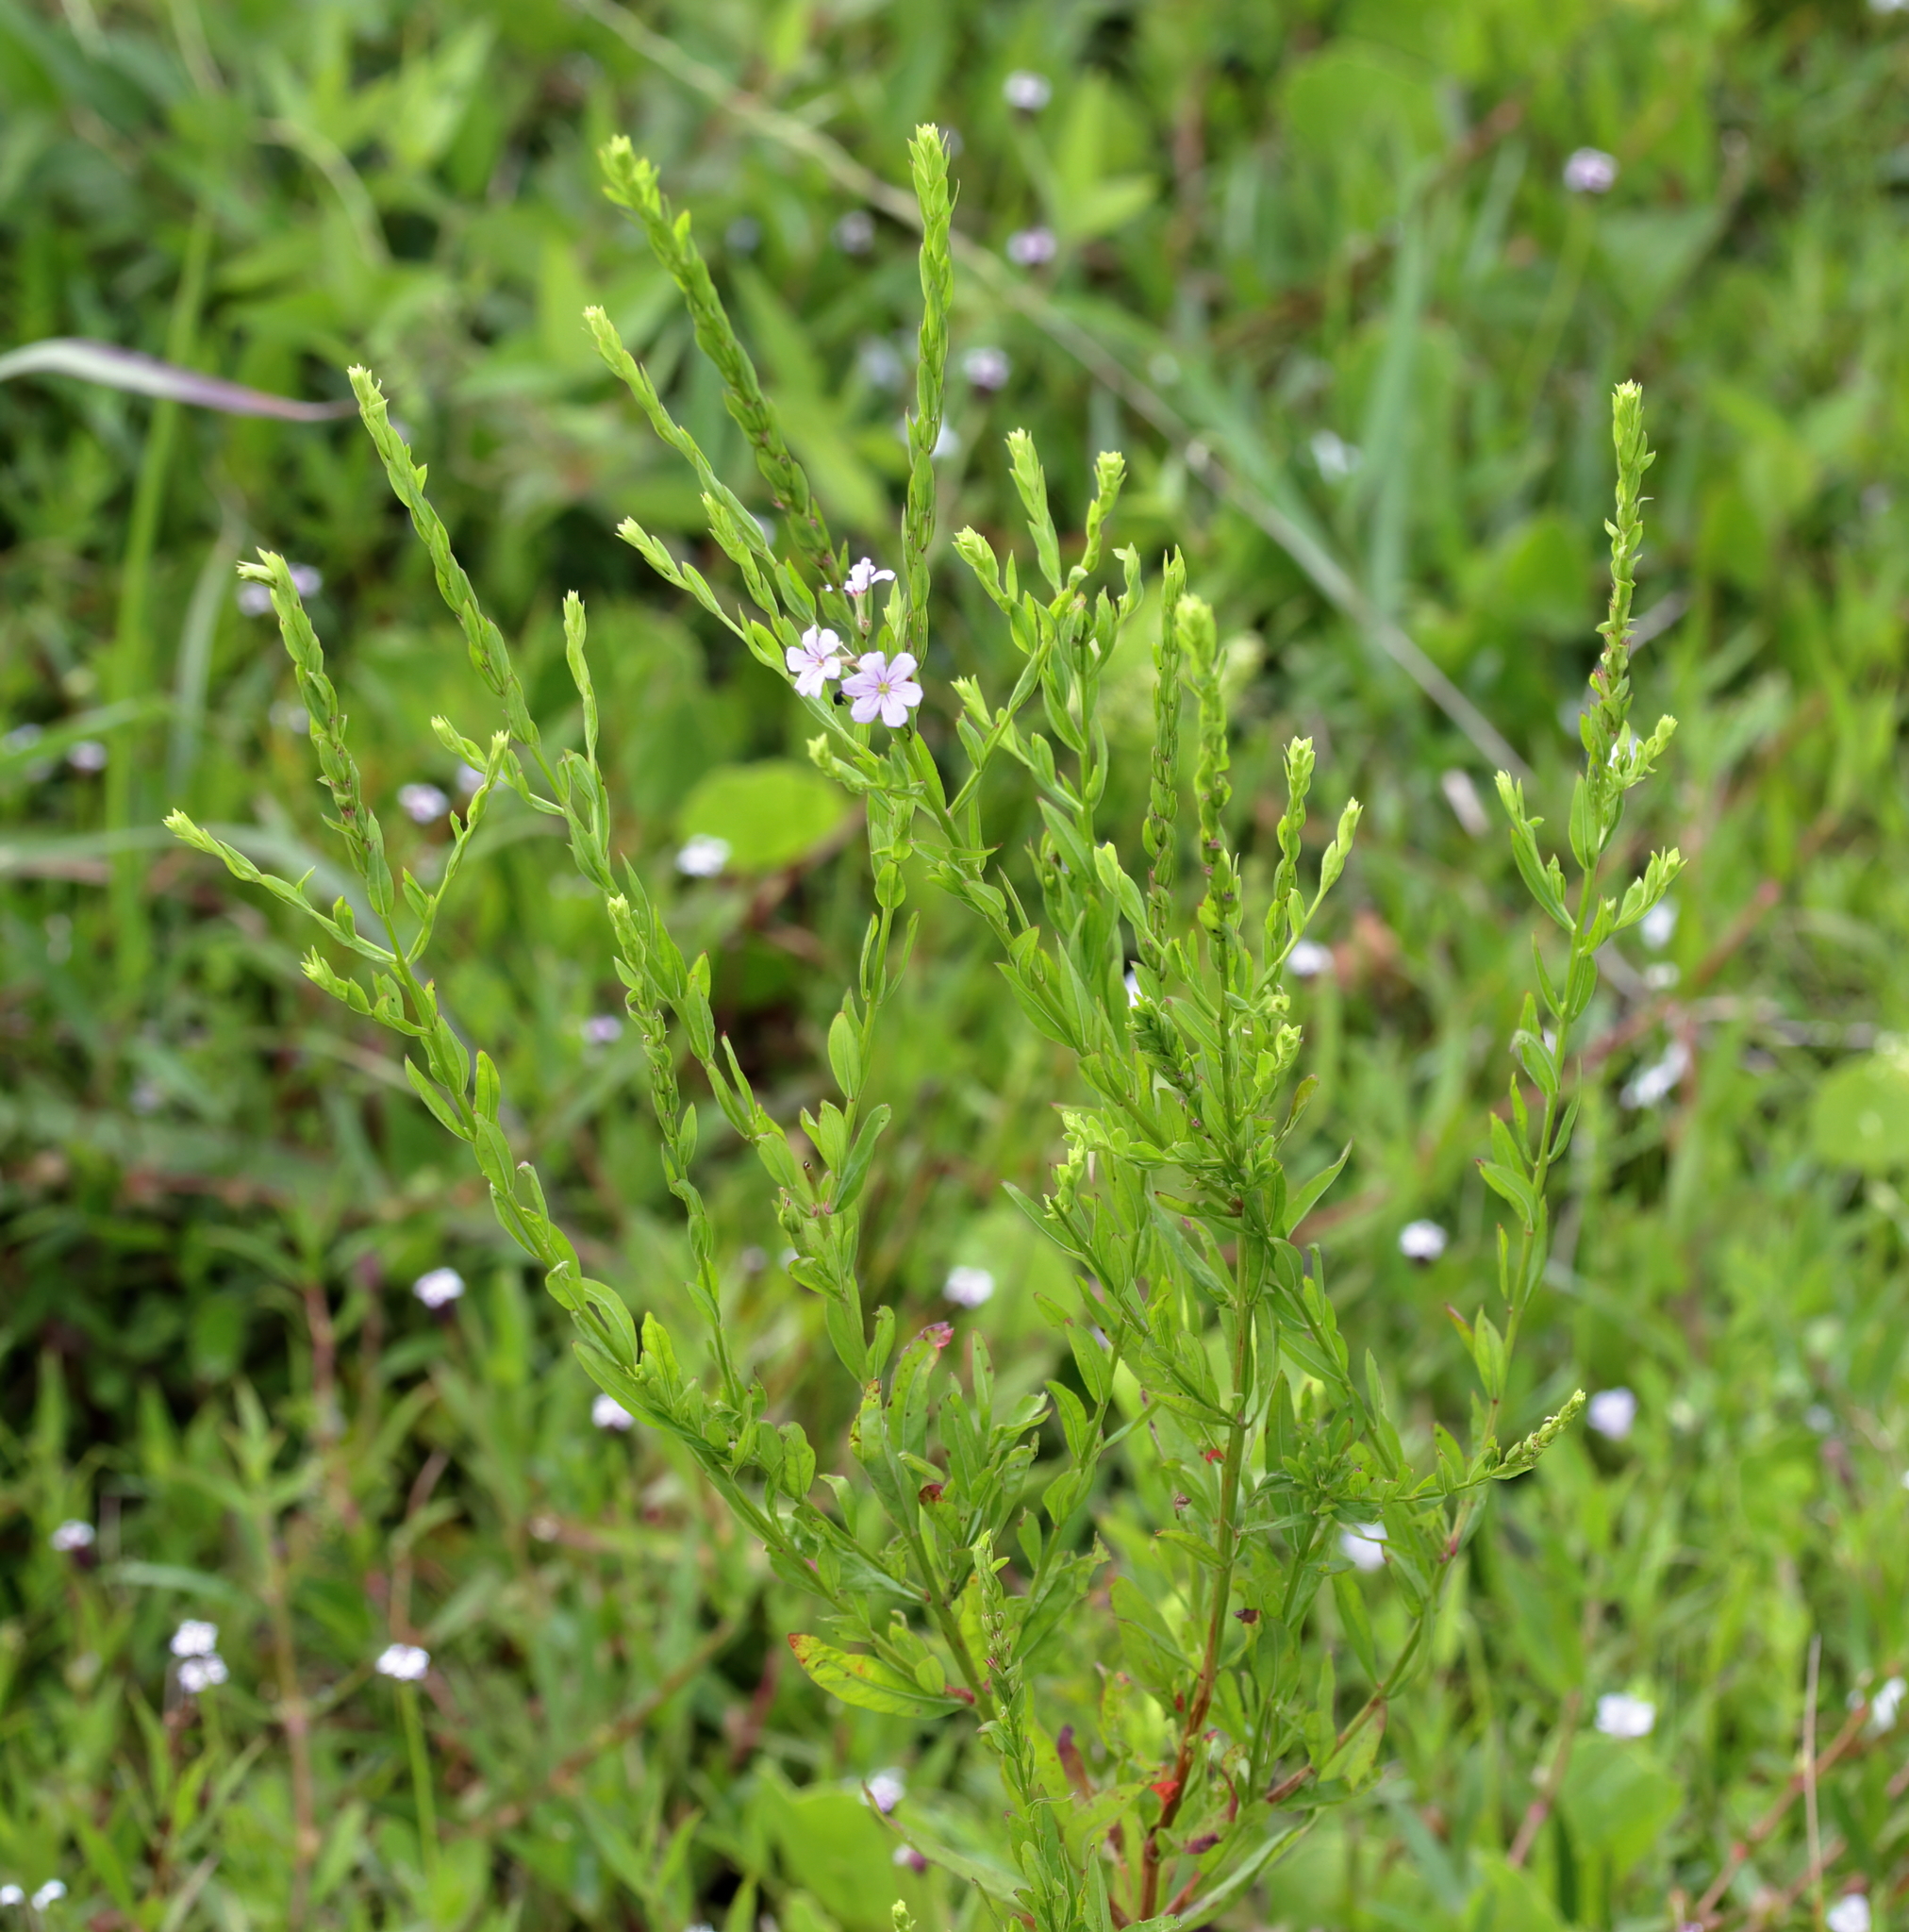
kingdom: Plantae
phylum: Tracheophyta
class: Magnoliopsida
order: Myrtales
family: Lythraceae
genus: Lythrum
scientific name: Lythrum alatum
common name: Winged loosestrife
